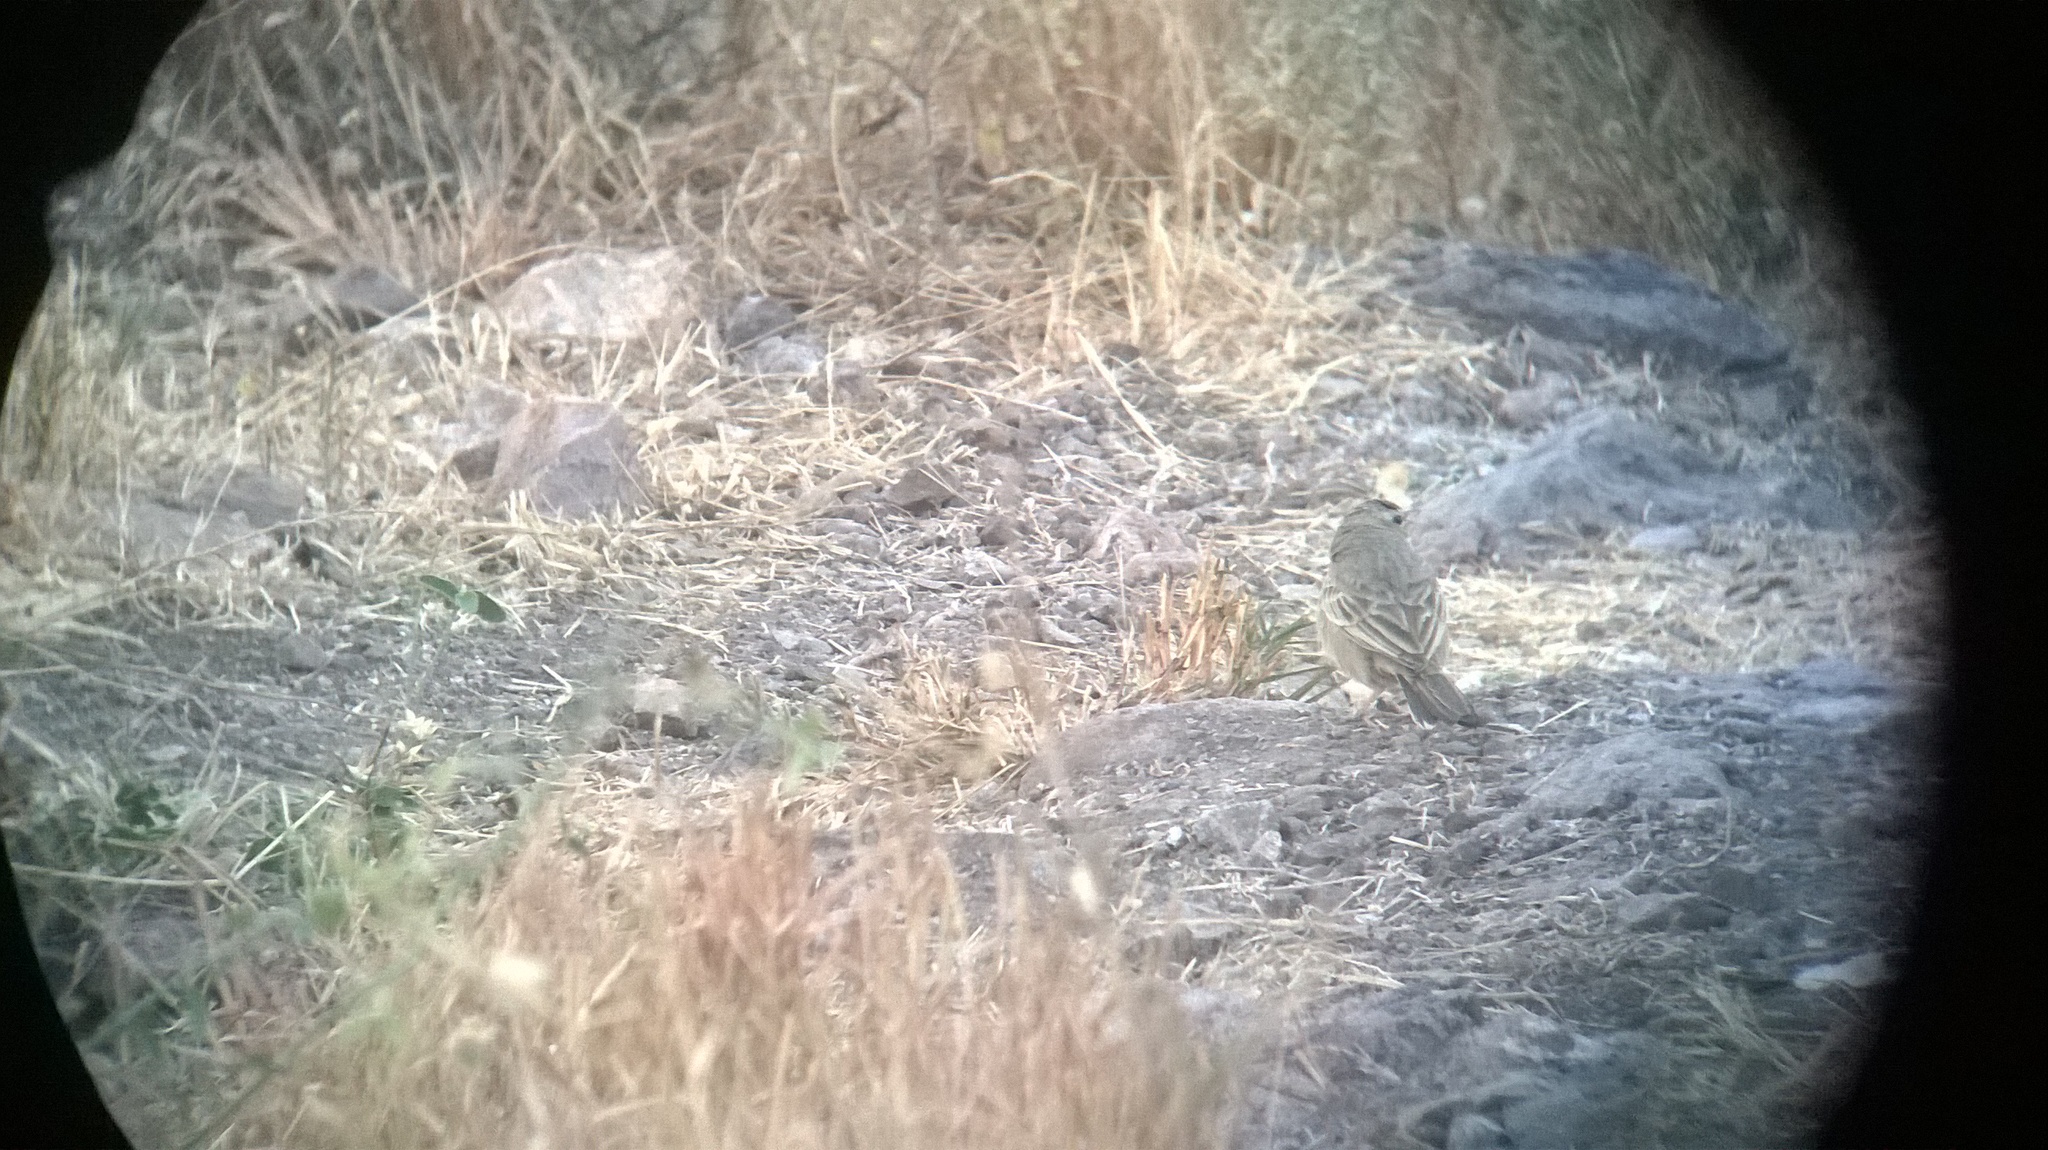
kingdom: Animalia
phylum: Chordata
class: Aves
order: Passeriformes
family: Motacillidae
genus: Anthus
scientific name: Anthus campestris
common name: Tawny pipit
